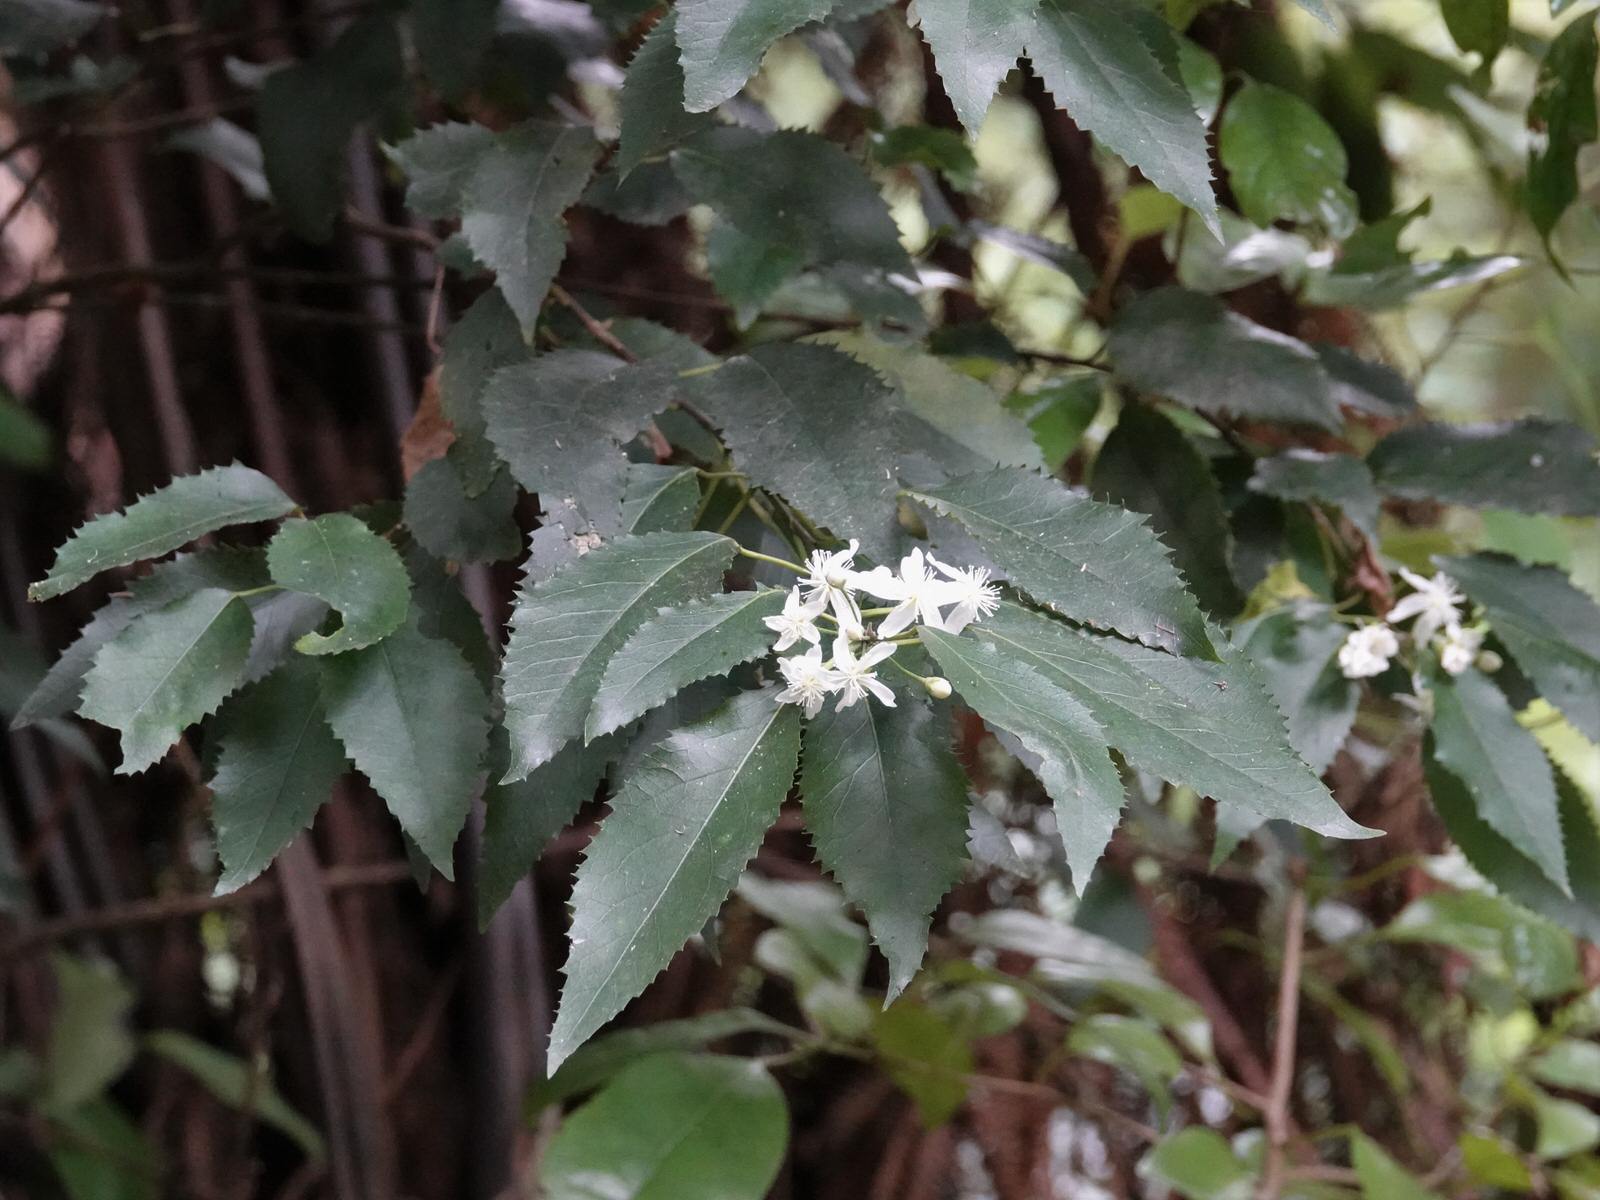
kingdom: Plantae
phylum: Tracheophyta
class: Magnoliopsida
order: Malvales
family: Malvaceae
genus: Hoheria
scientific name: Hoheria populnea
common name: Lacebark
